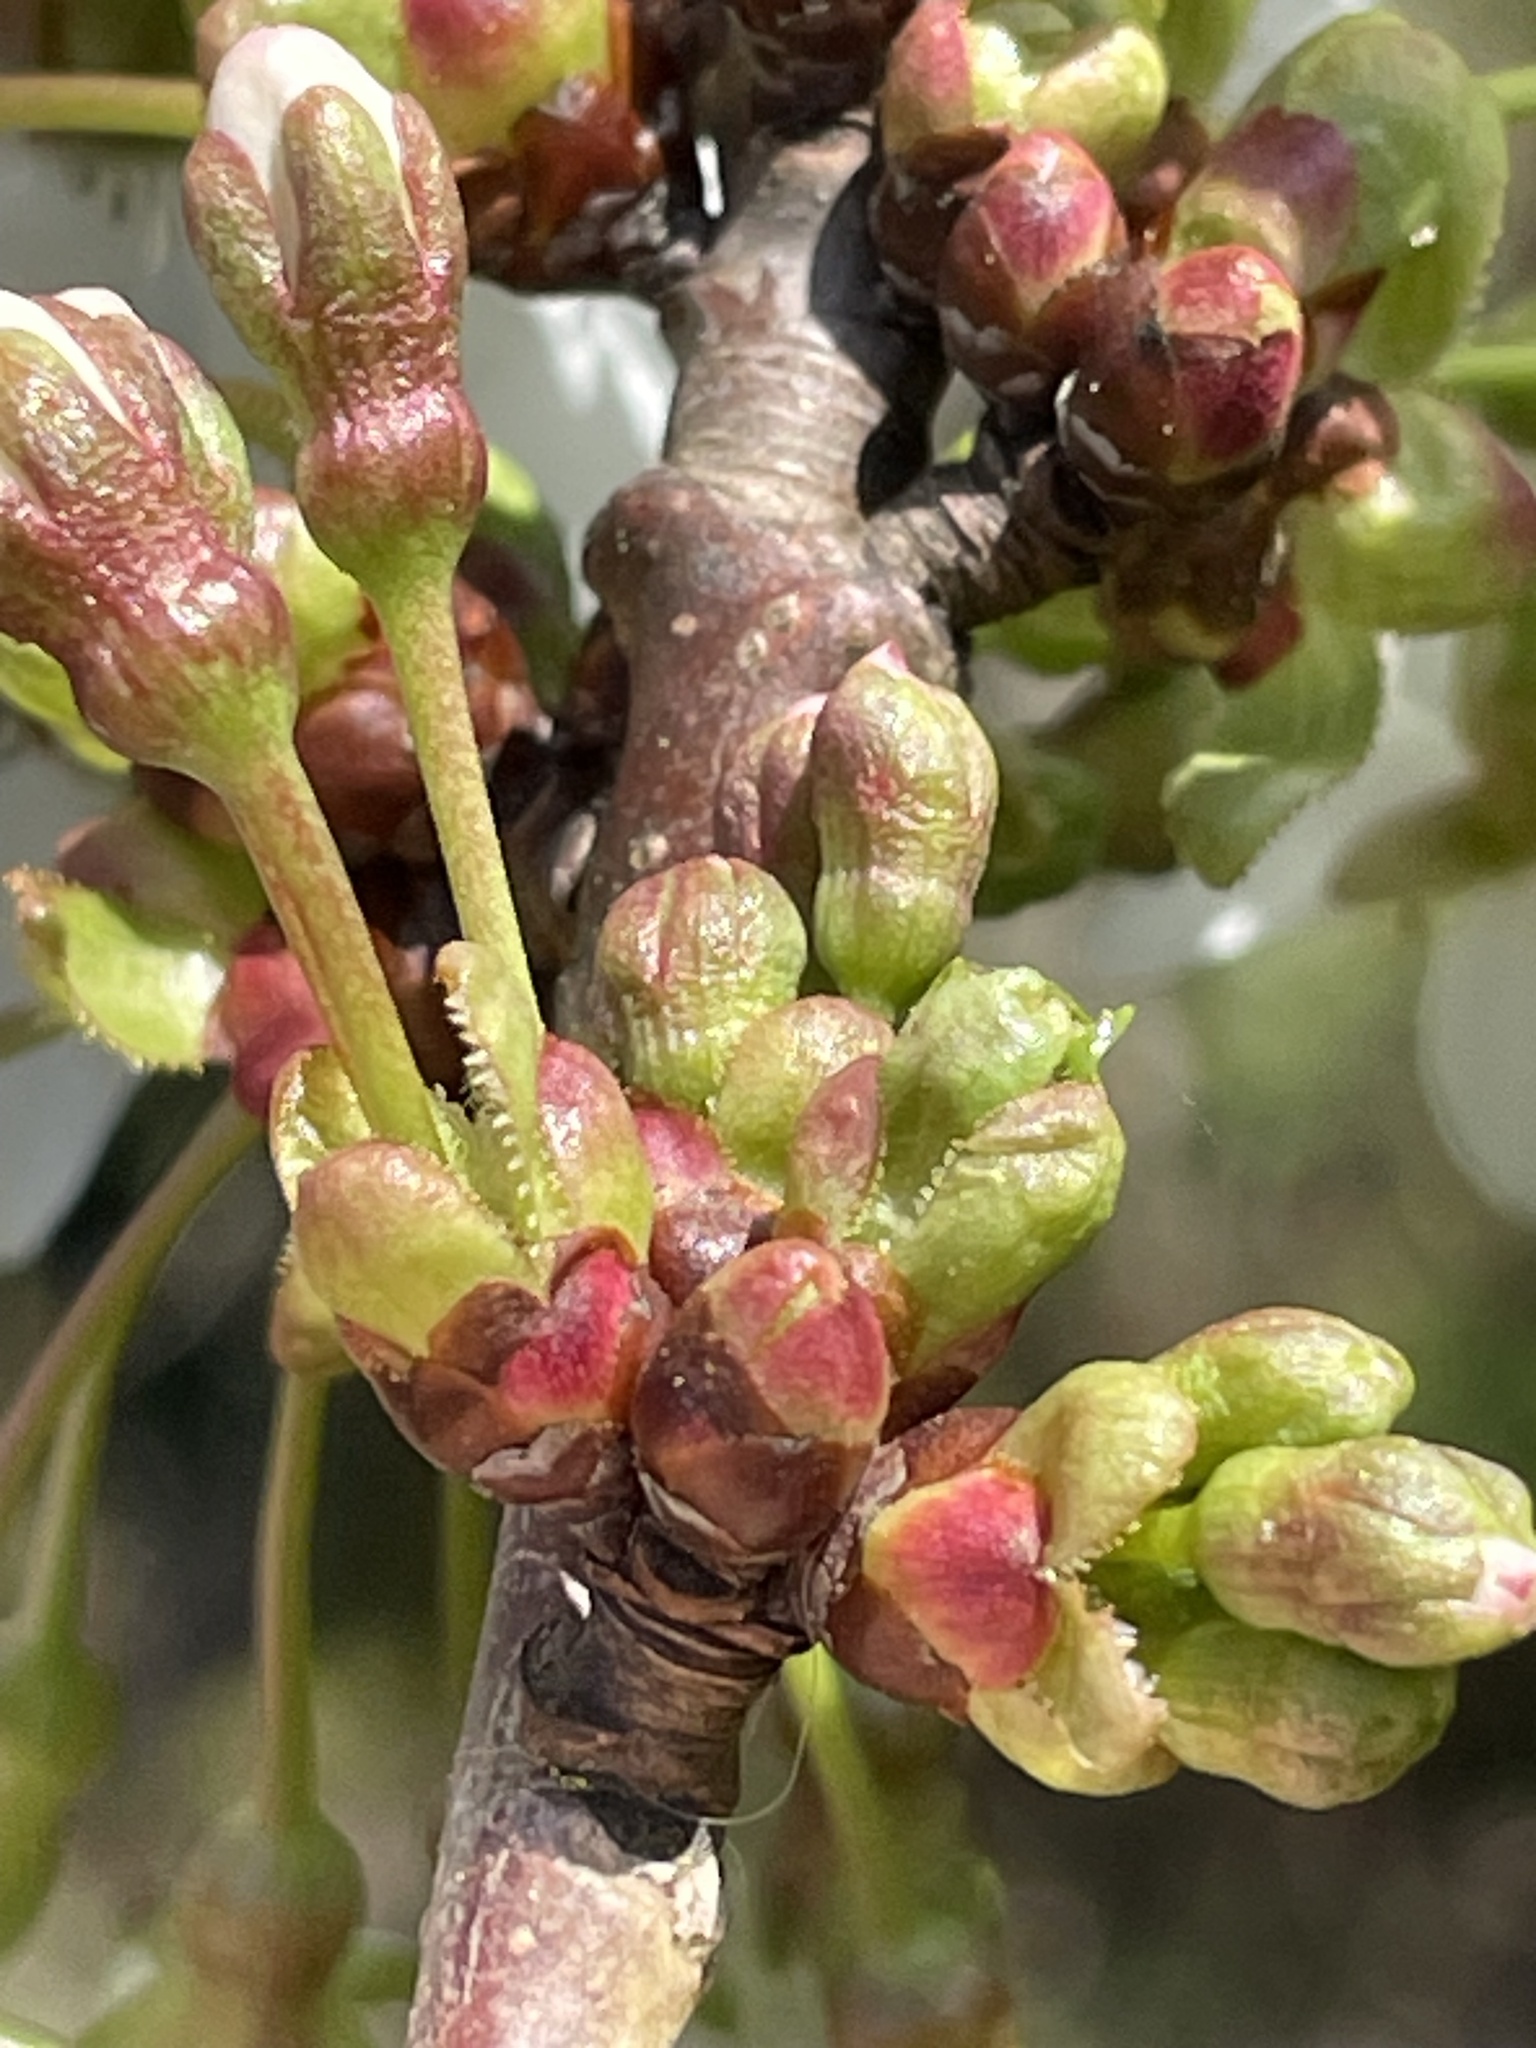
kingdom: Plantae
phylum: Tracheophyta
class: Magnoliopsida
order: Rosales
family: Rosaceae
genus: Prunus
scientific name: Prunus avium
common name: Sweet cherry
